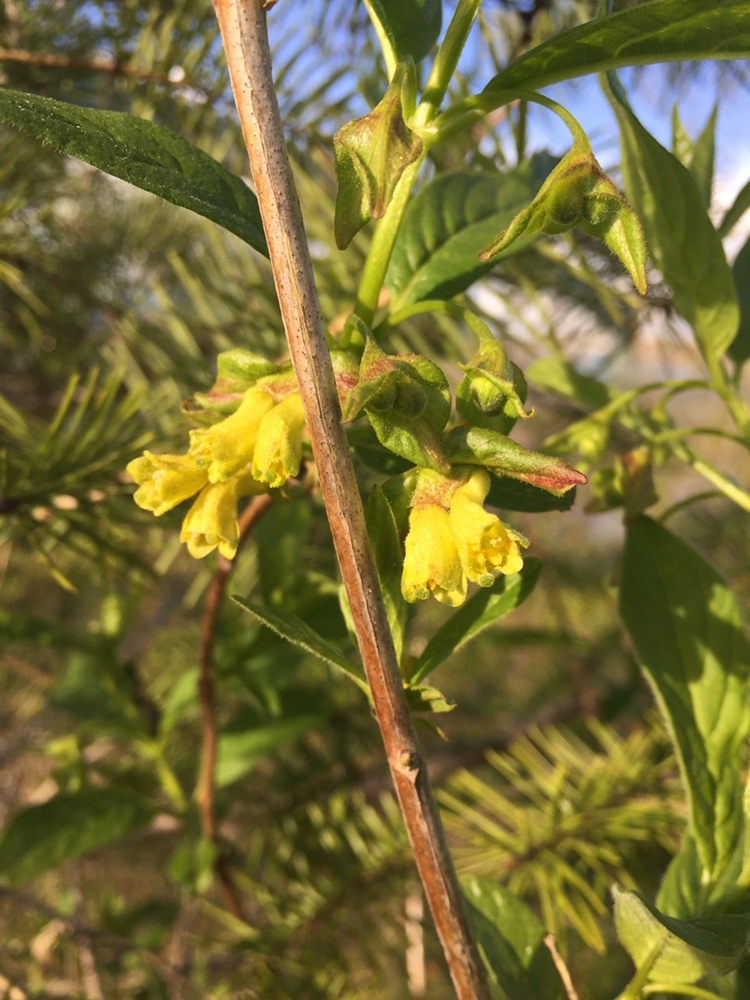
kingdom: Plantae
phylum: Tracheophyta
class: Magnoliopsida
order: Dipsacales
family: Caprifoliaceae
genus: Lonicera
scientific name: Lonicera involucrata
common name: Californian honeysuckle
